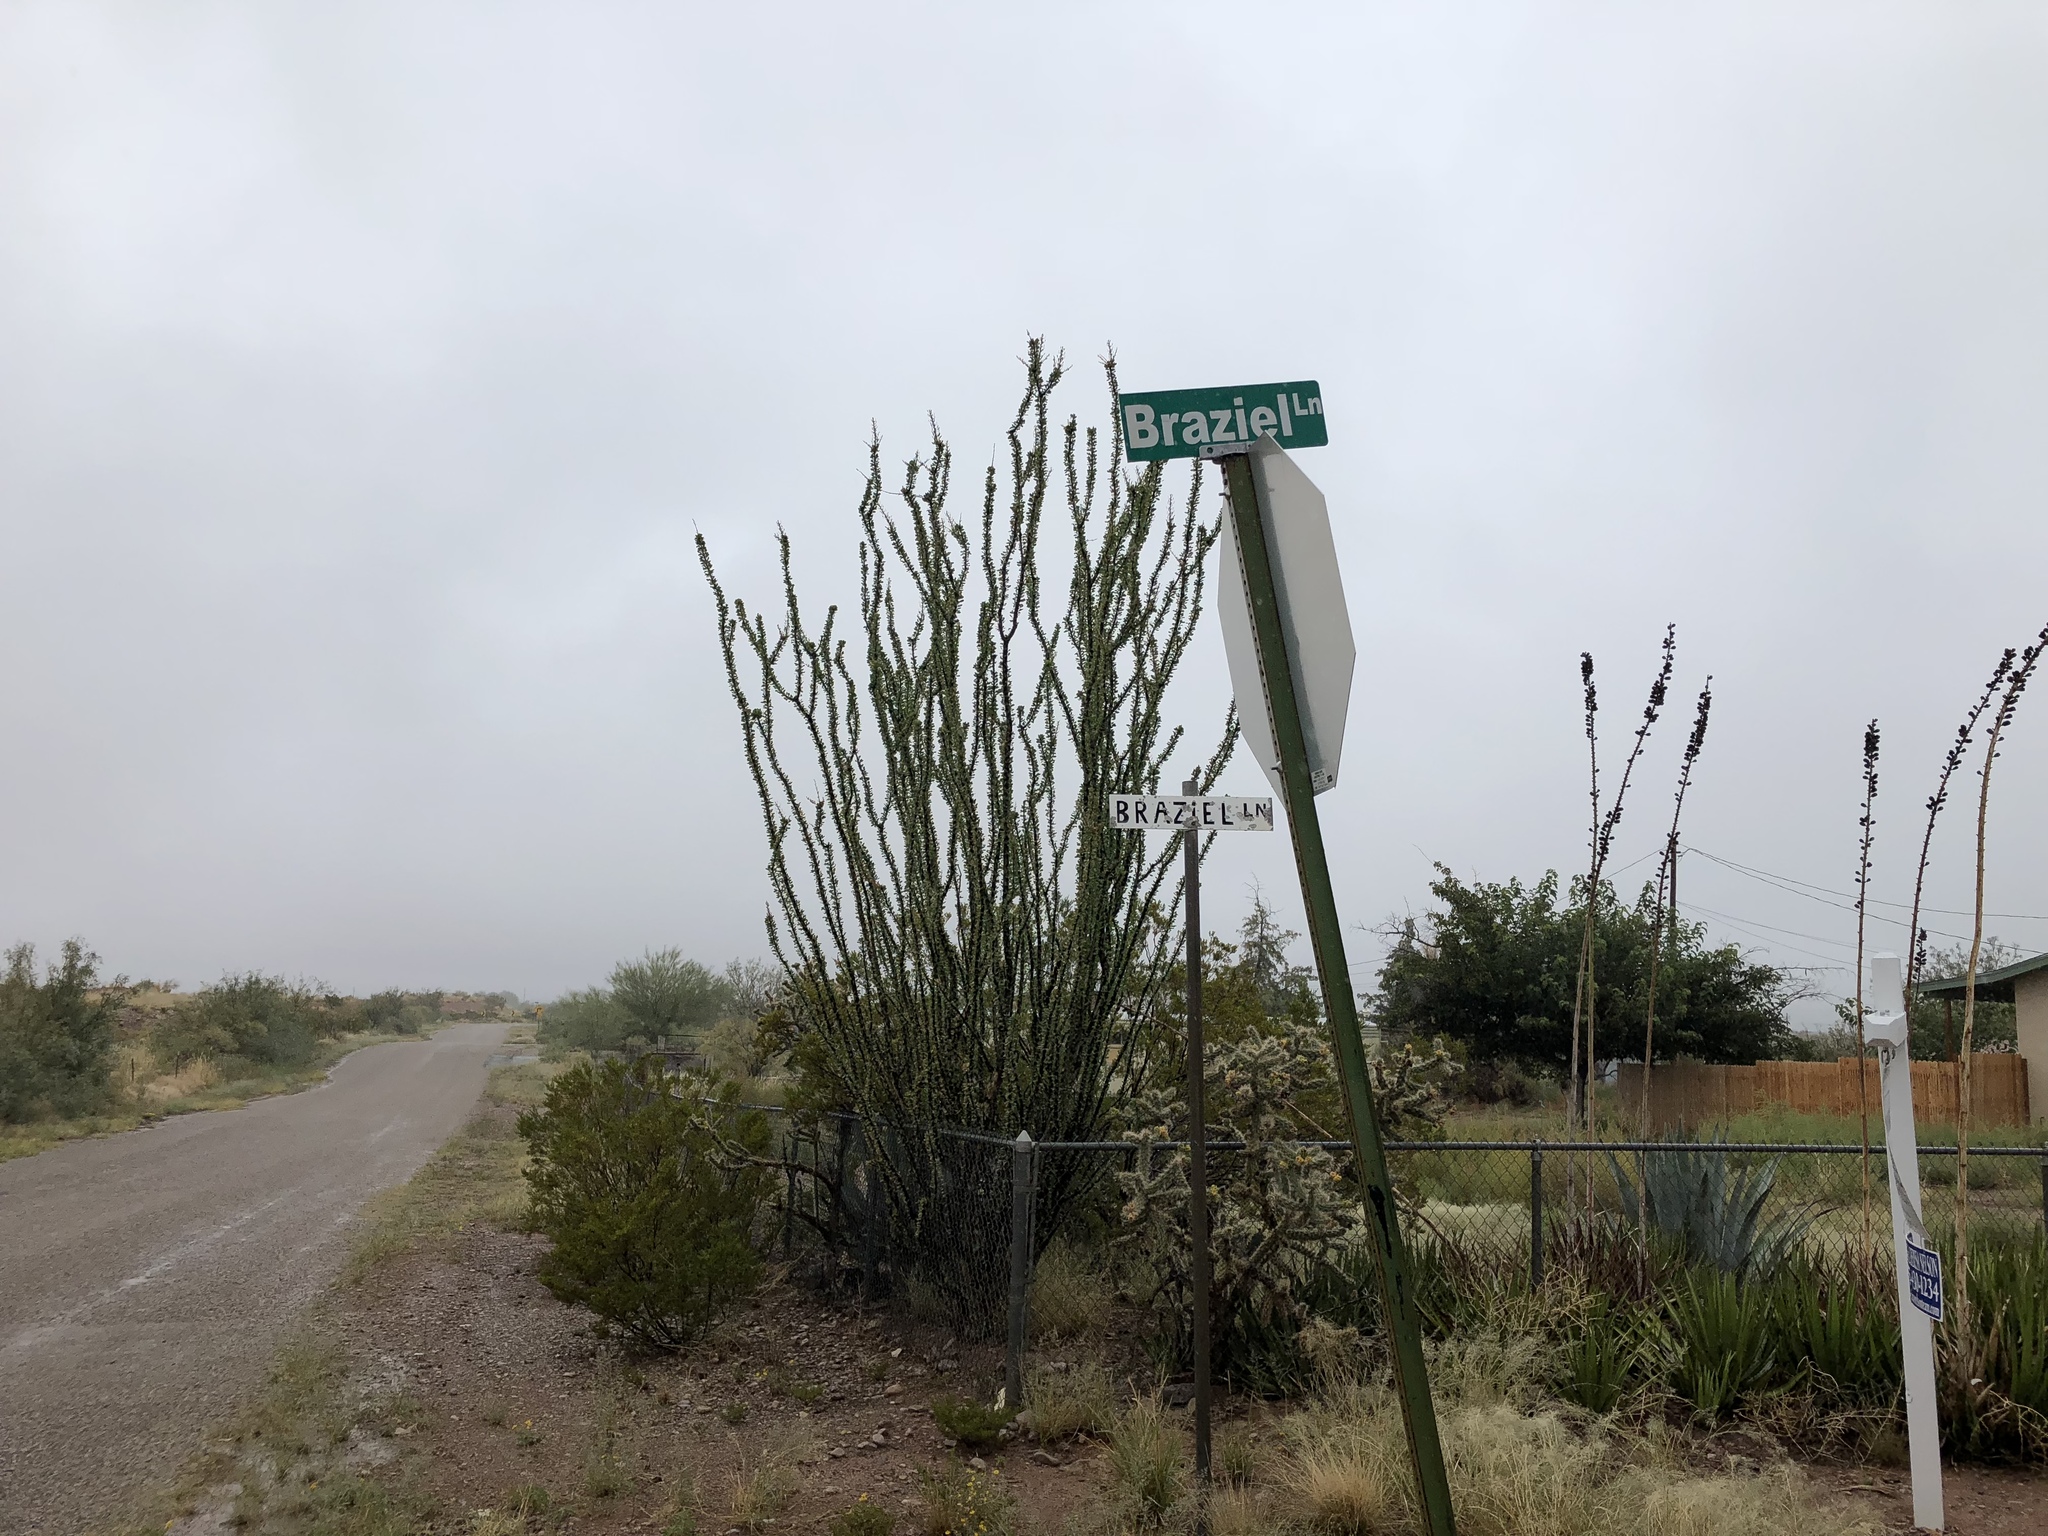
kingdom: Plantae
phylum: Tracheophyta
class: Magnoliopsida
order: Ericales
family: Fouquieriaceae
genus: Fouquieria
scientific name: Fouquieria splendens
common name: Vine-cactus
